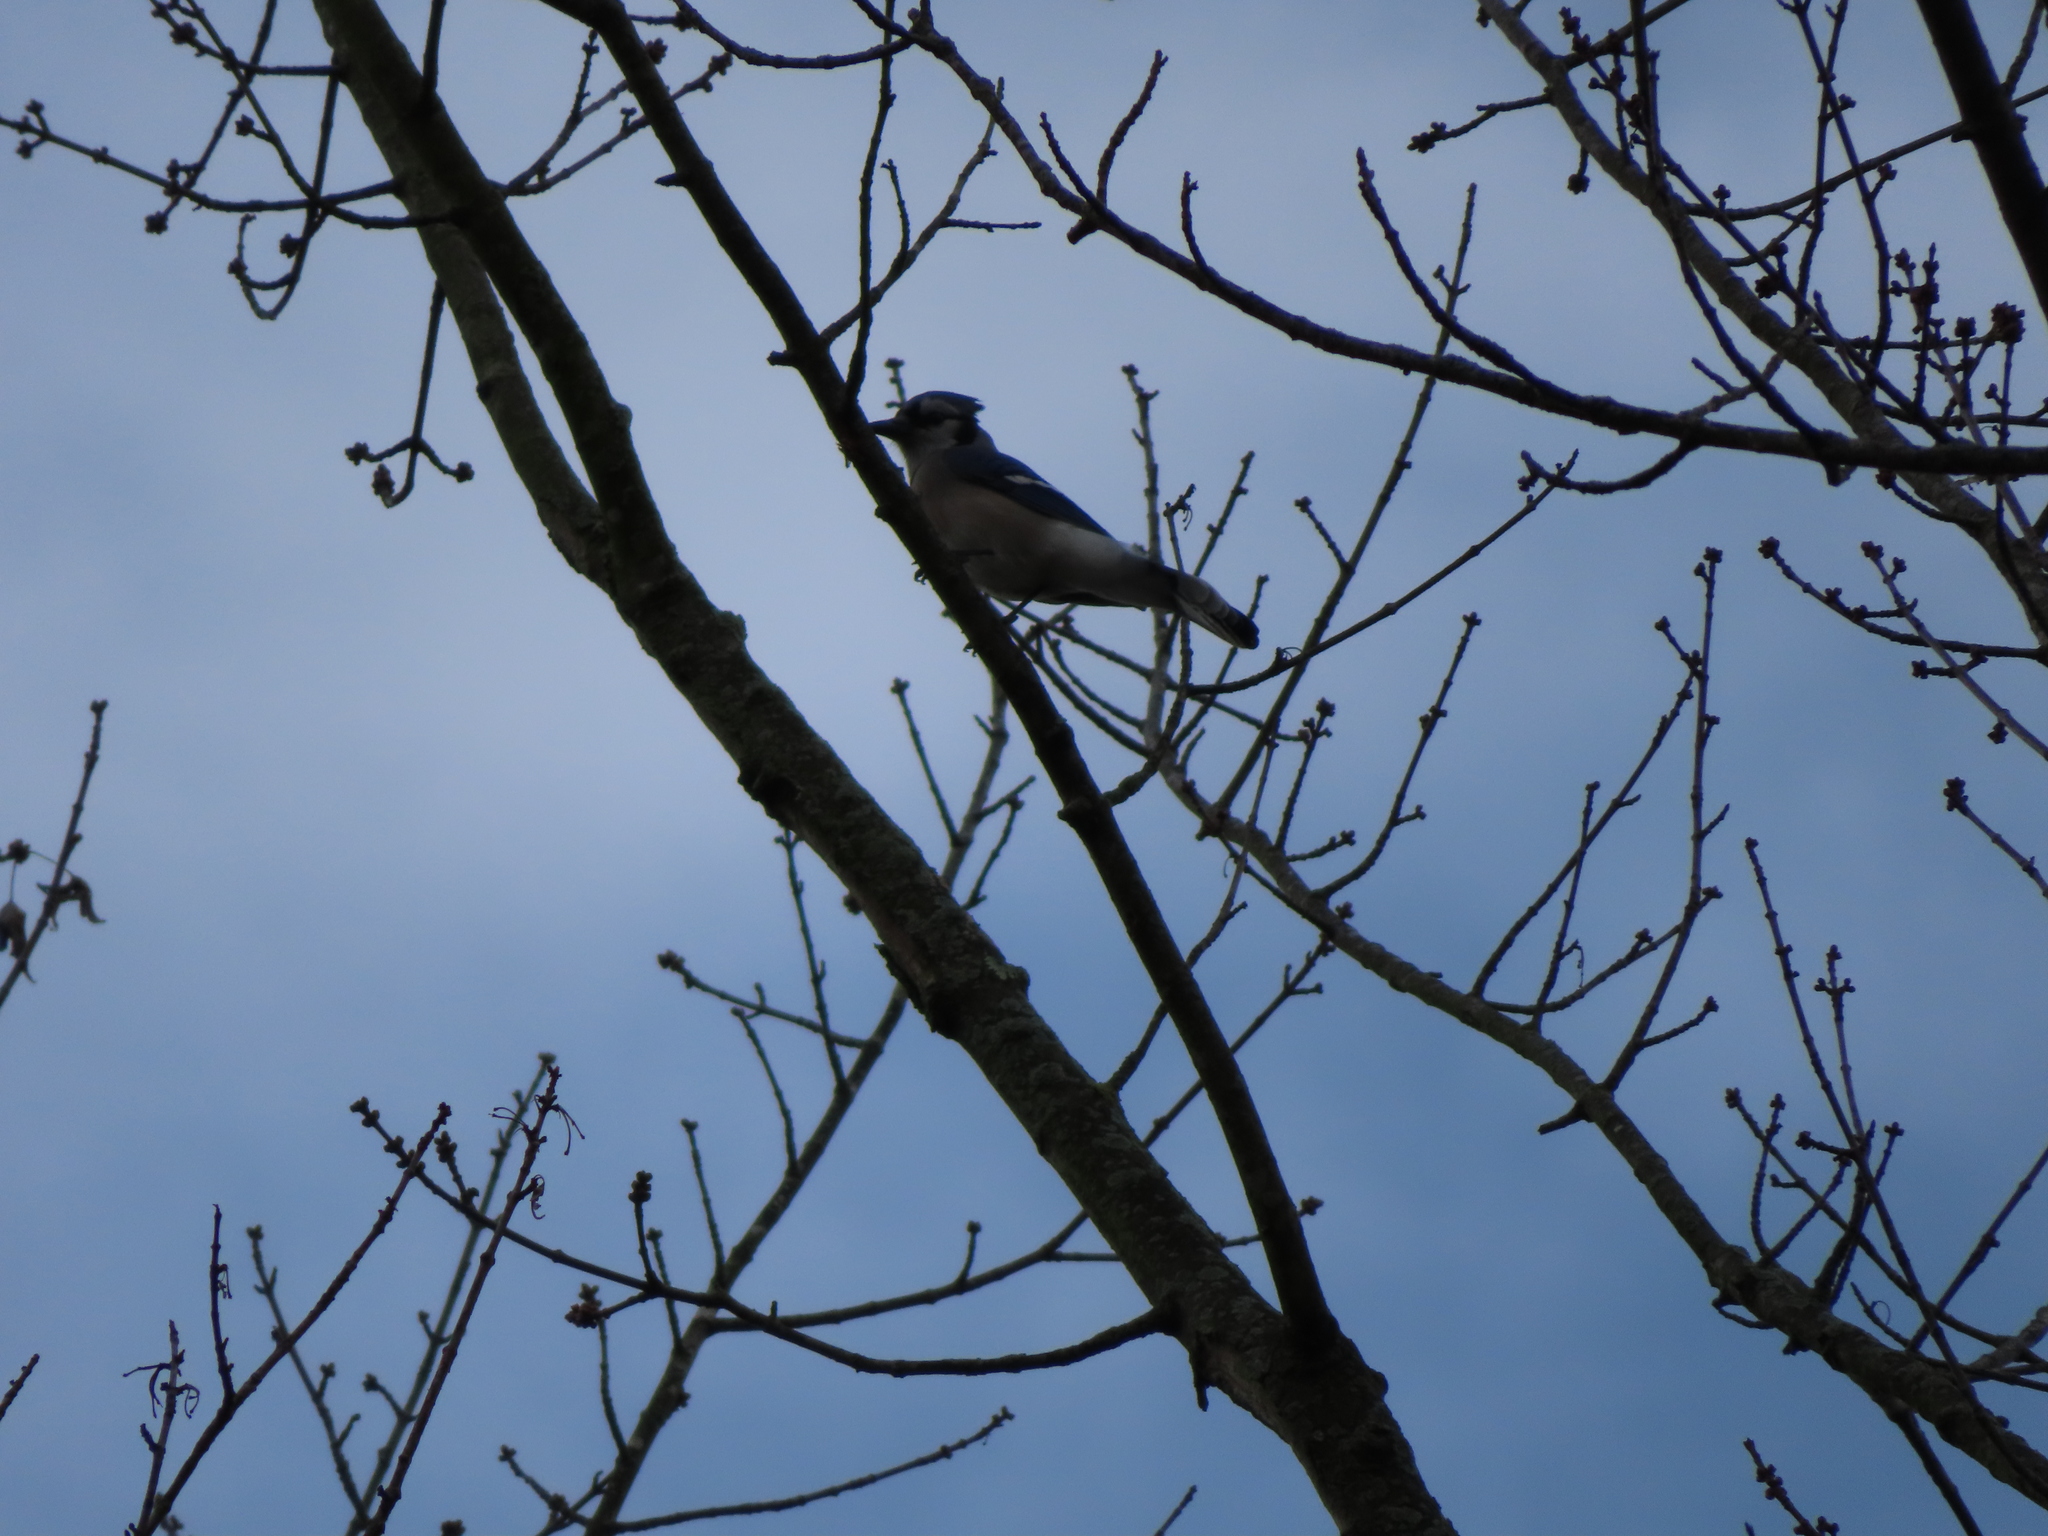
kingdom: Animalia
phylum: Chordata
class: Aves
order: Passeriformes
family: Corvidae
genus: Cyanocitta
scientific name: Cyanocitta cristata
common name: Blue jay
